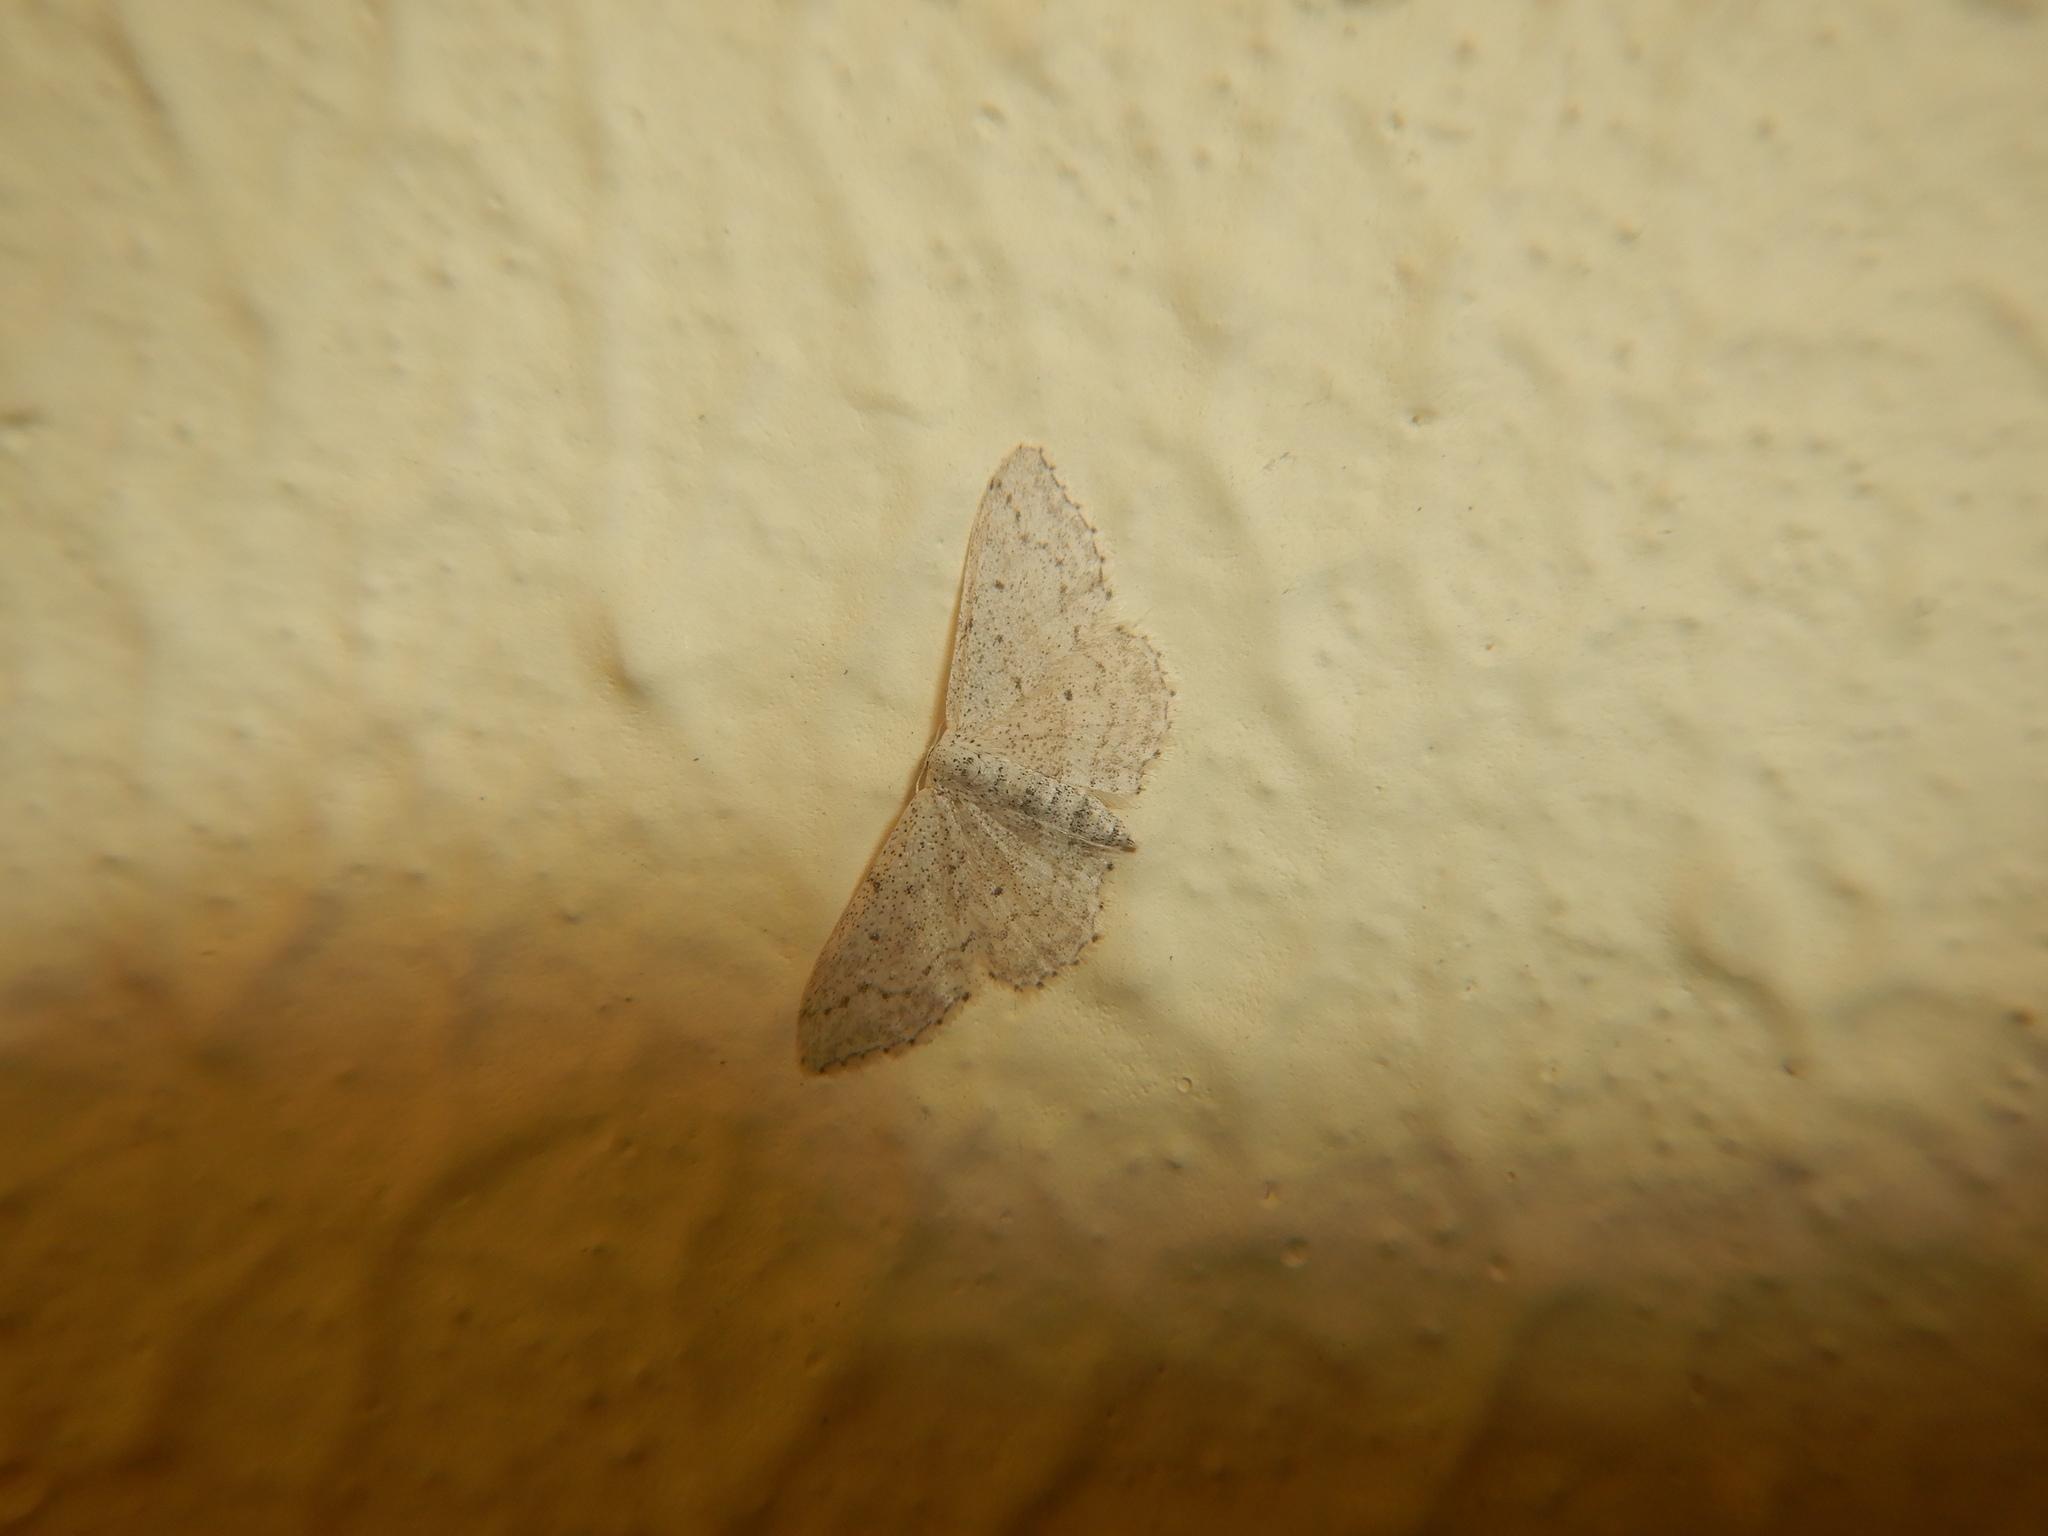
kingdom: Animalia
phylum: Arthropoda
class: Insecta
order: Lepidoptera
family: Geometridae
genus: Idaea
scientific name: Idaea seriata
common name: Small dusty wave
